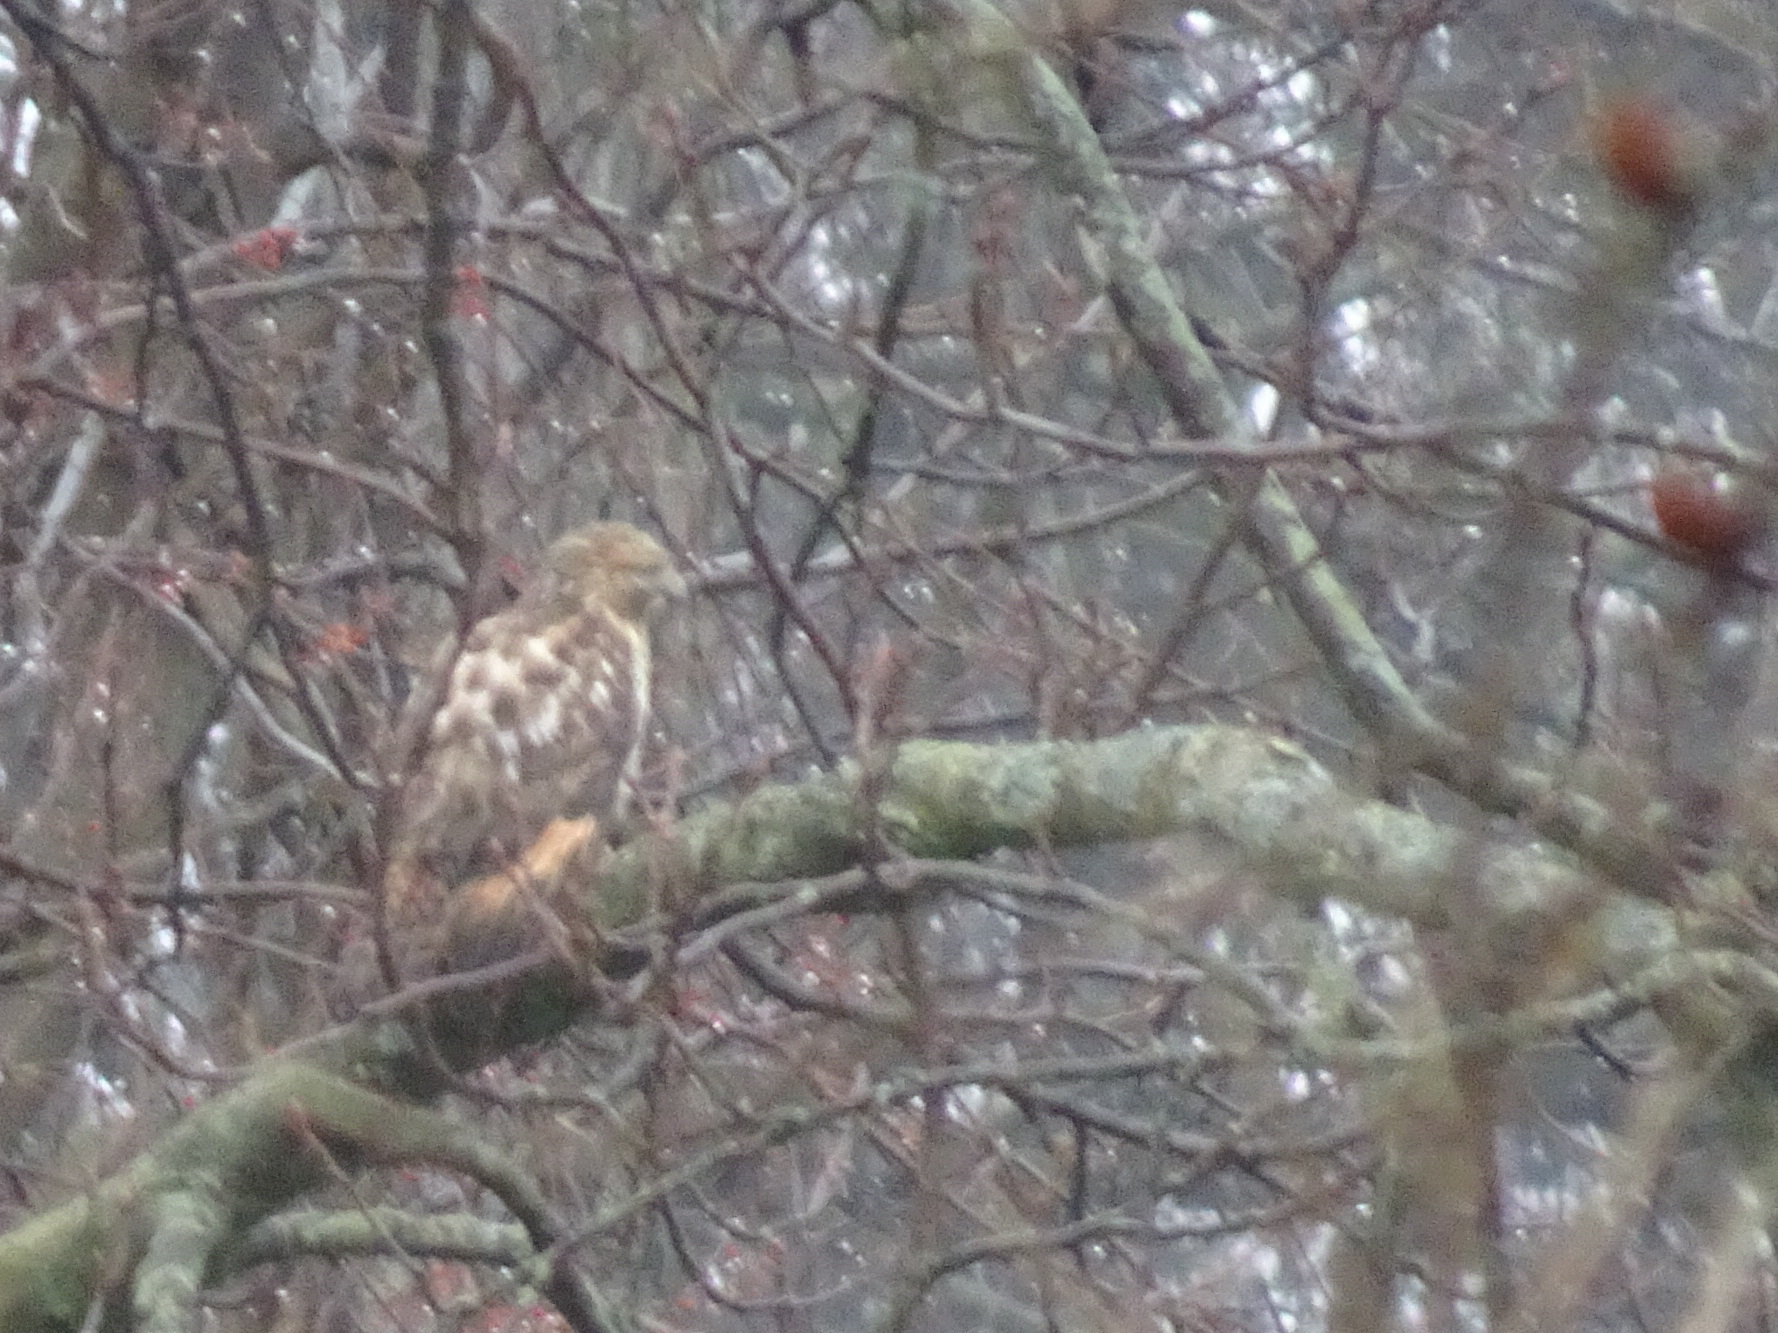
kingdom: Animalia
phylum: Chordata
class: Aves
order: Accipitriformes
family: Accipitridae
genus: Buteo
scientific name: Buteo lineatus
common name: Red-shouldered hawk
